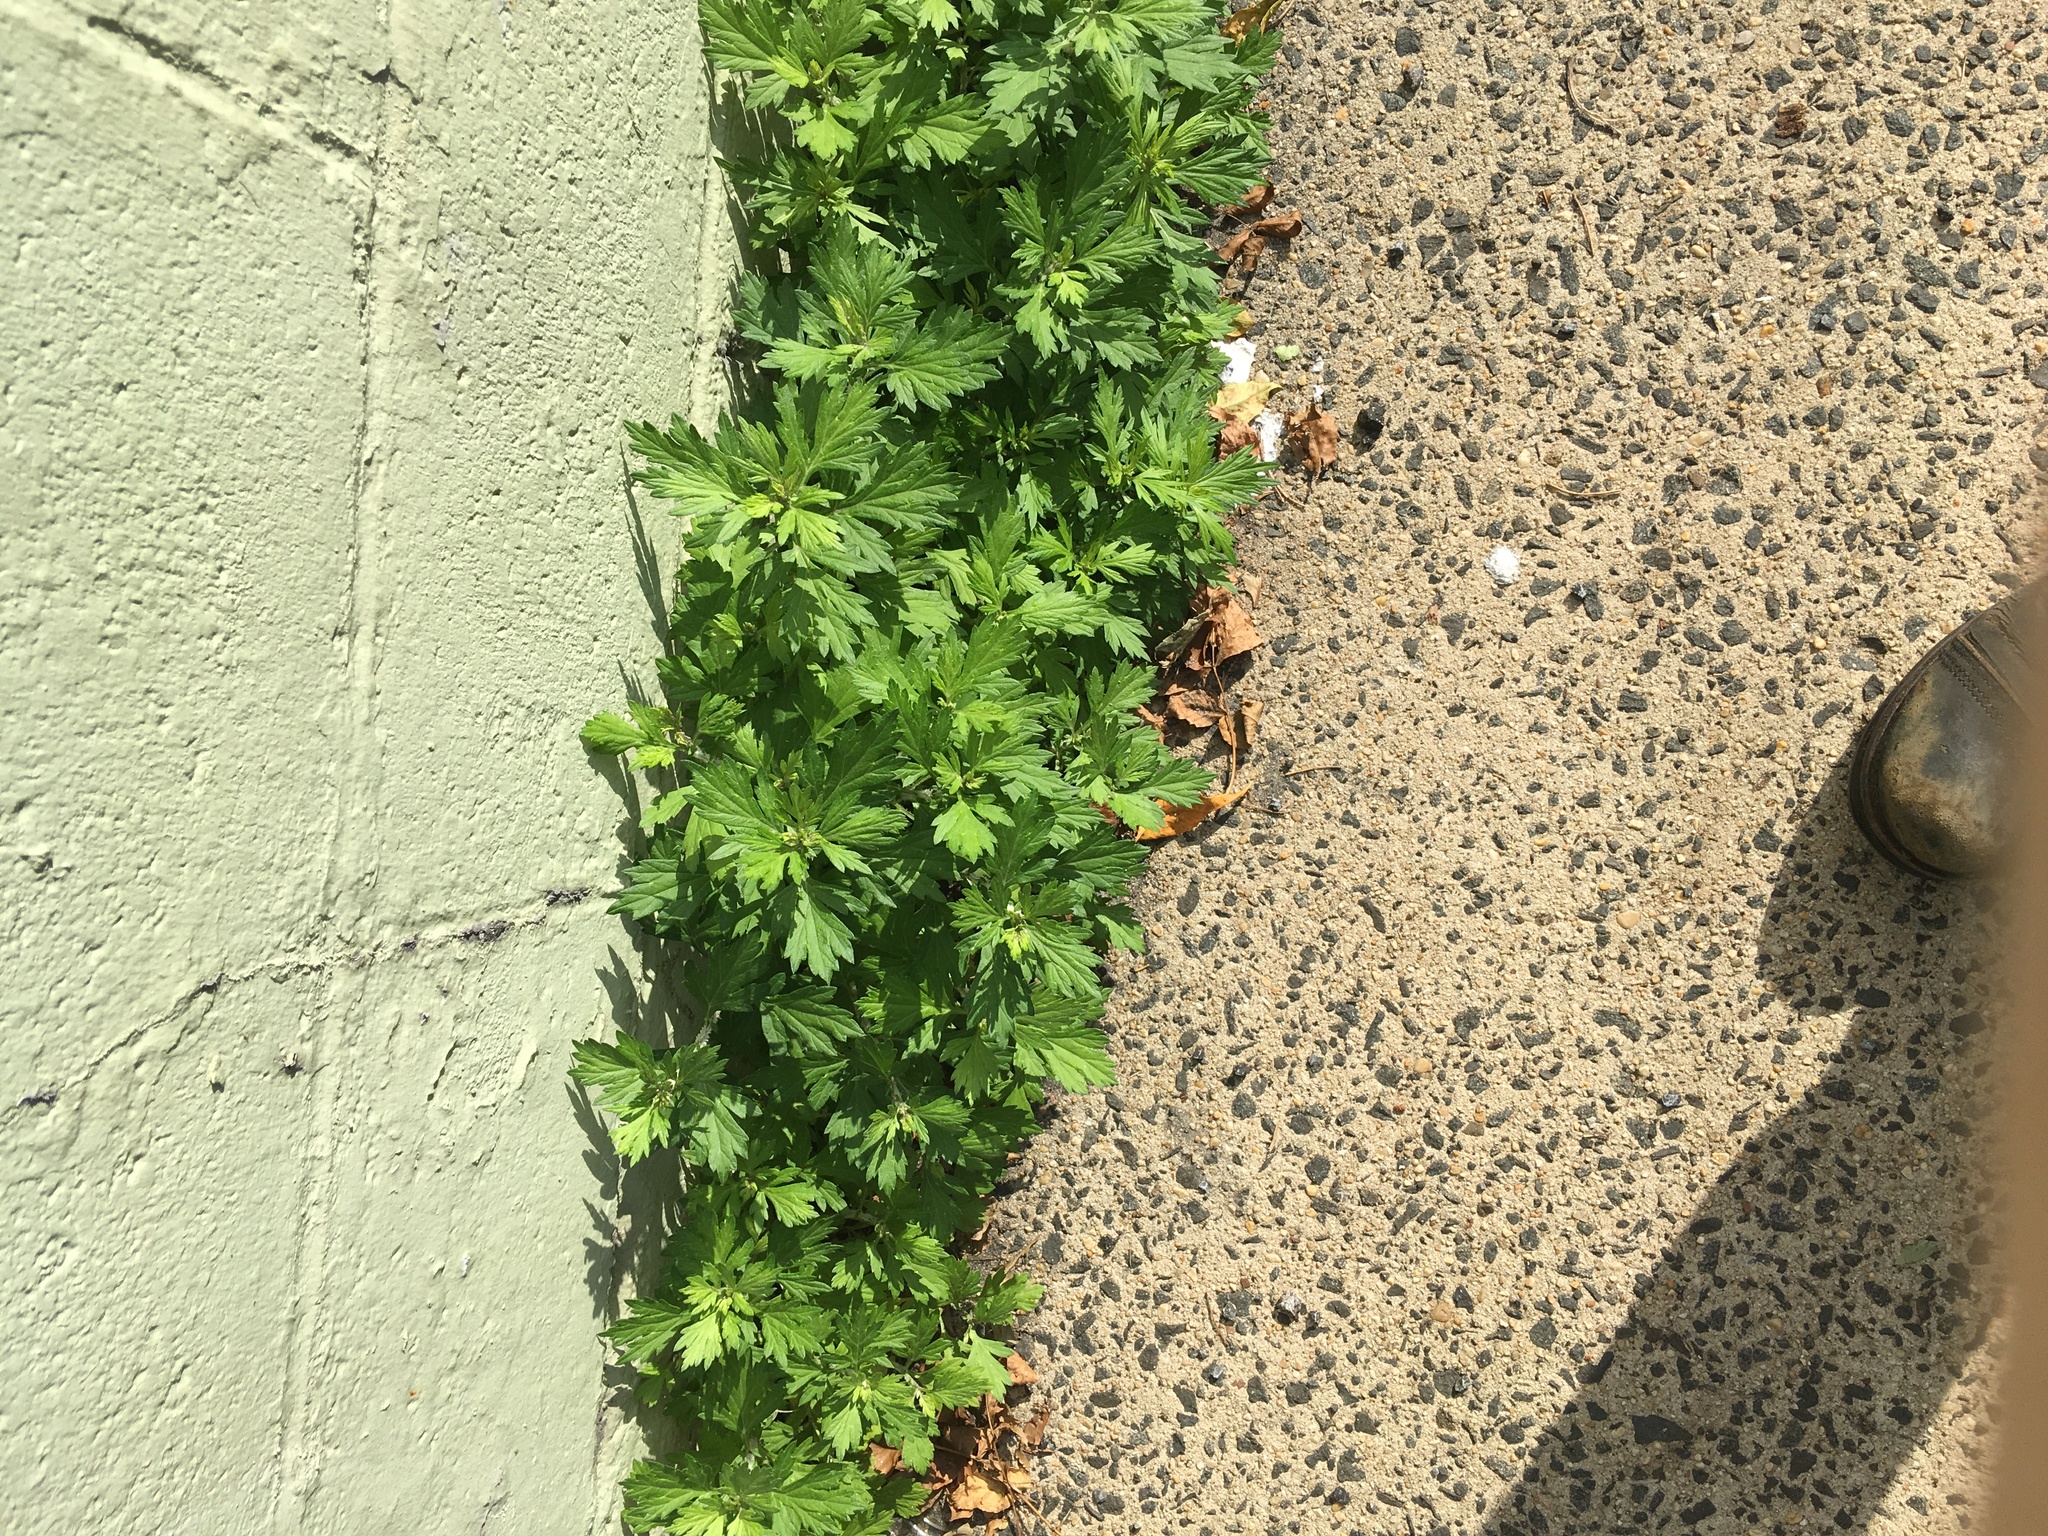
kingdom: Plantae
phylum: Tracheophyta
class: Magnoliopsida
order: Asterales
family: Asteraceae
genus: Artemisia
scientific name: Artemisia vulgaris
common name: Mugwort
